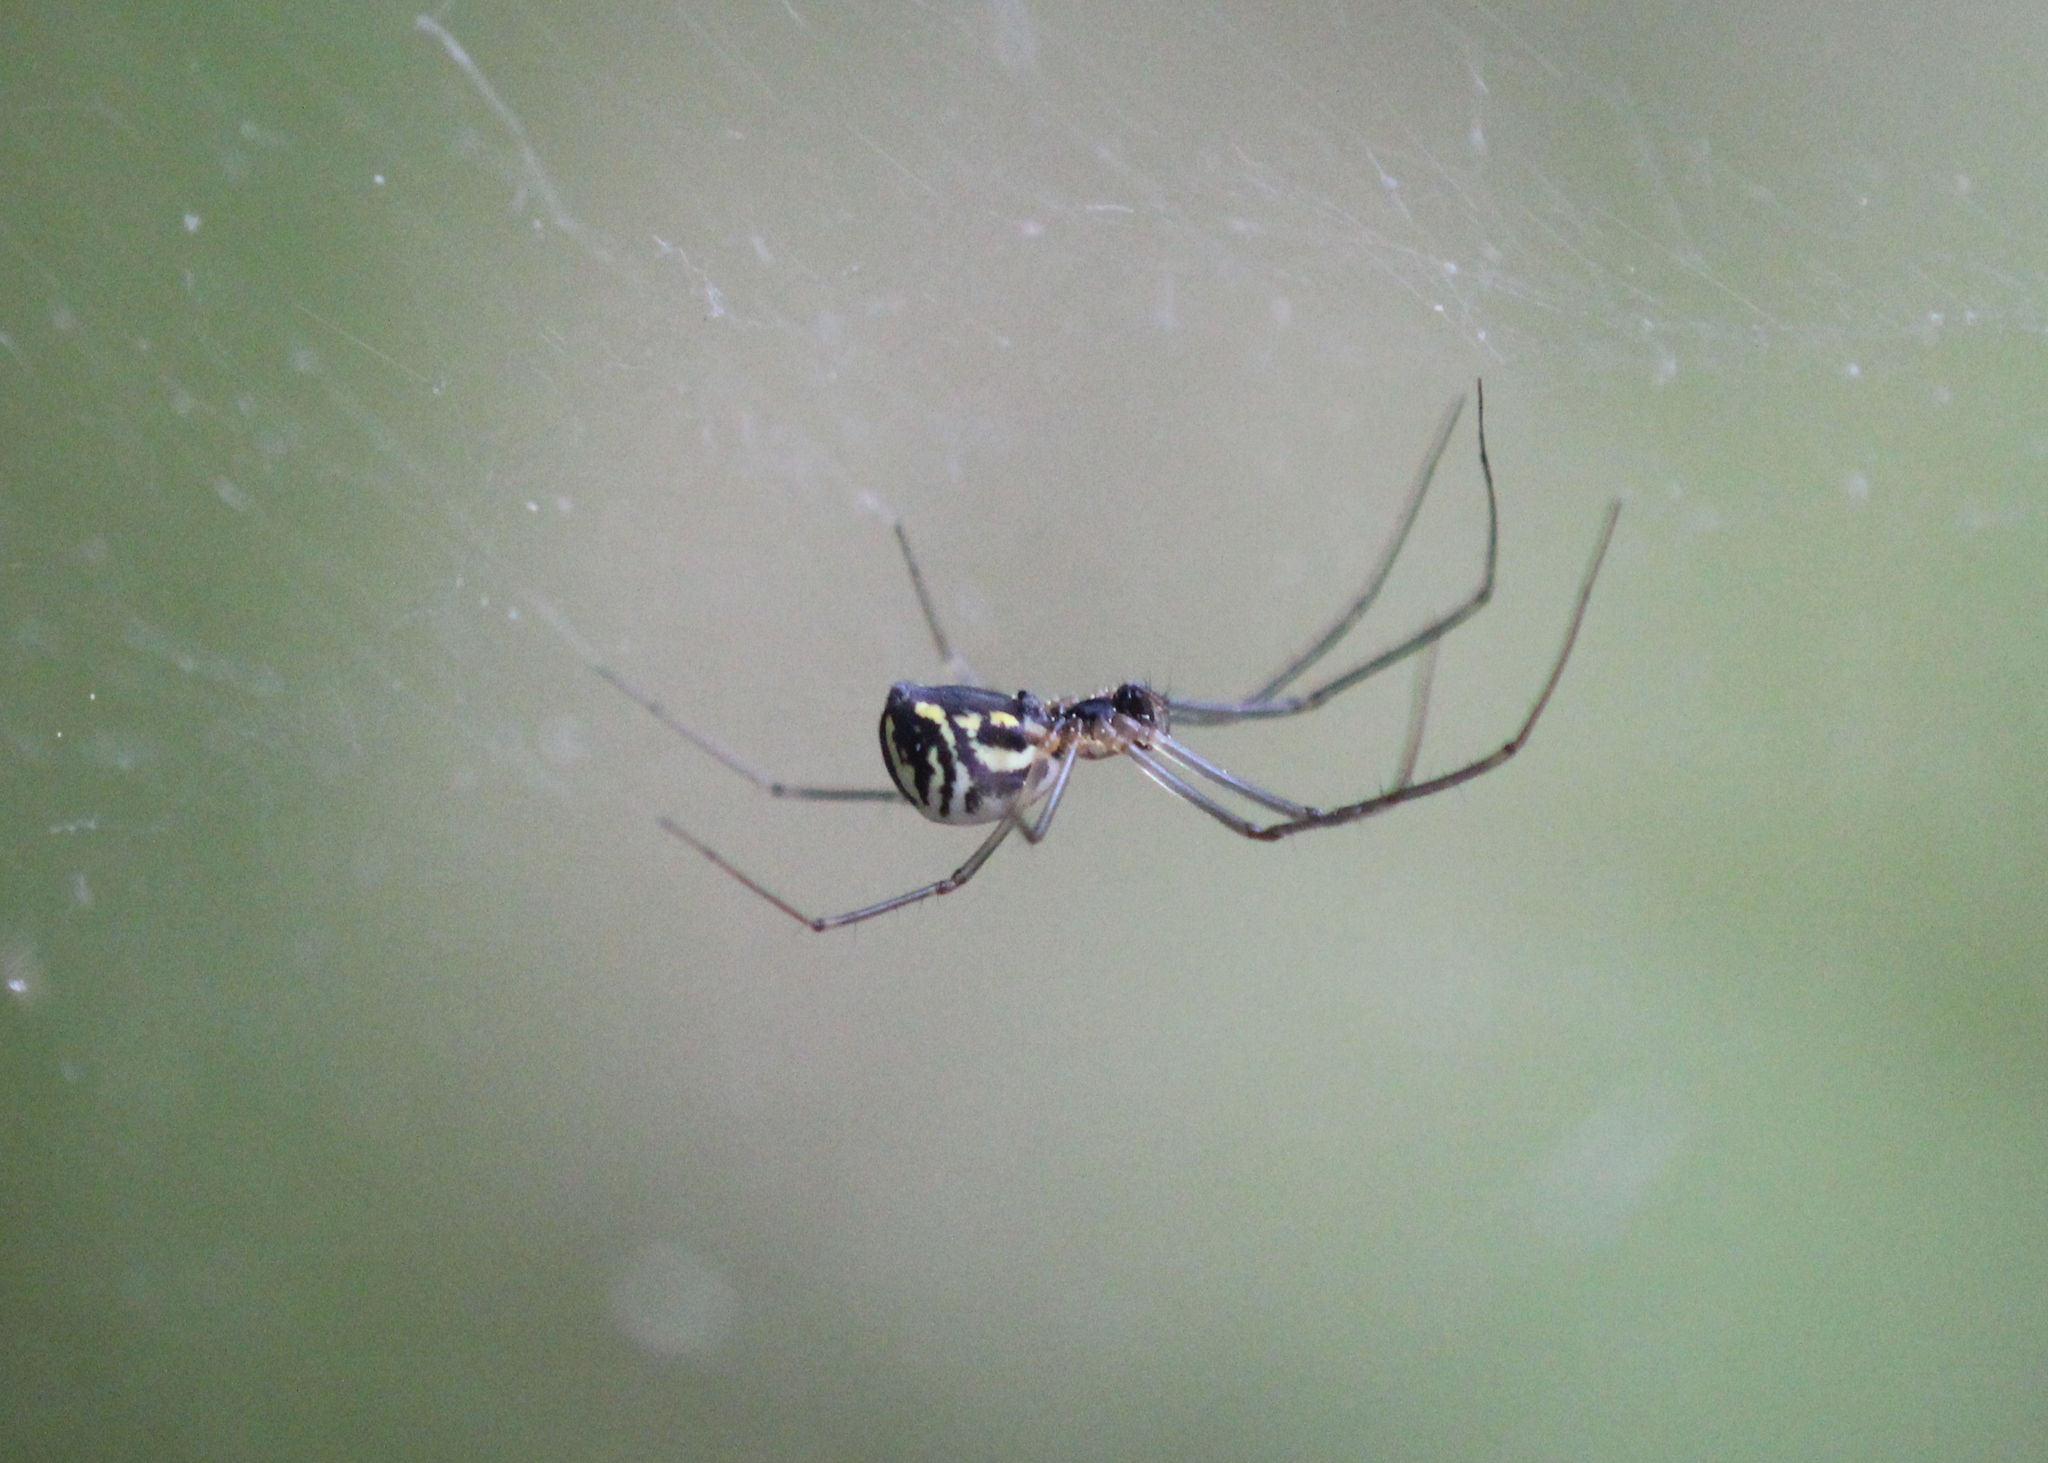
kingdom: Animalia
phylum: Arthropoda
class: Arachnida
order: Araneae
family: Linyphiidae
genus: Neriene
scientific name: Neriene radiata
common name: Filmy dome spider
